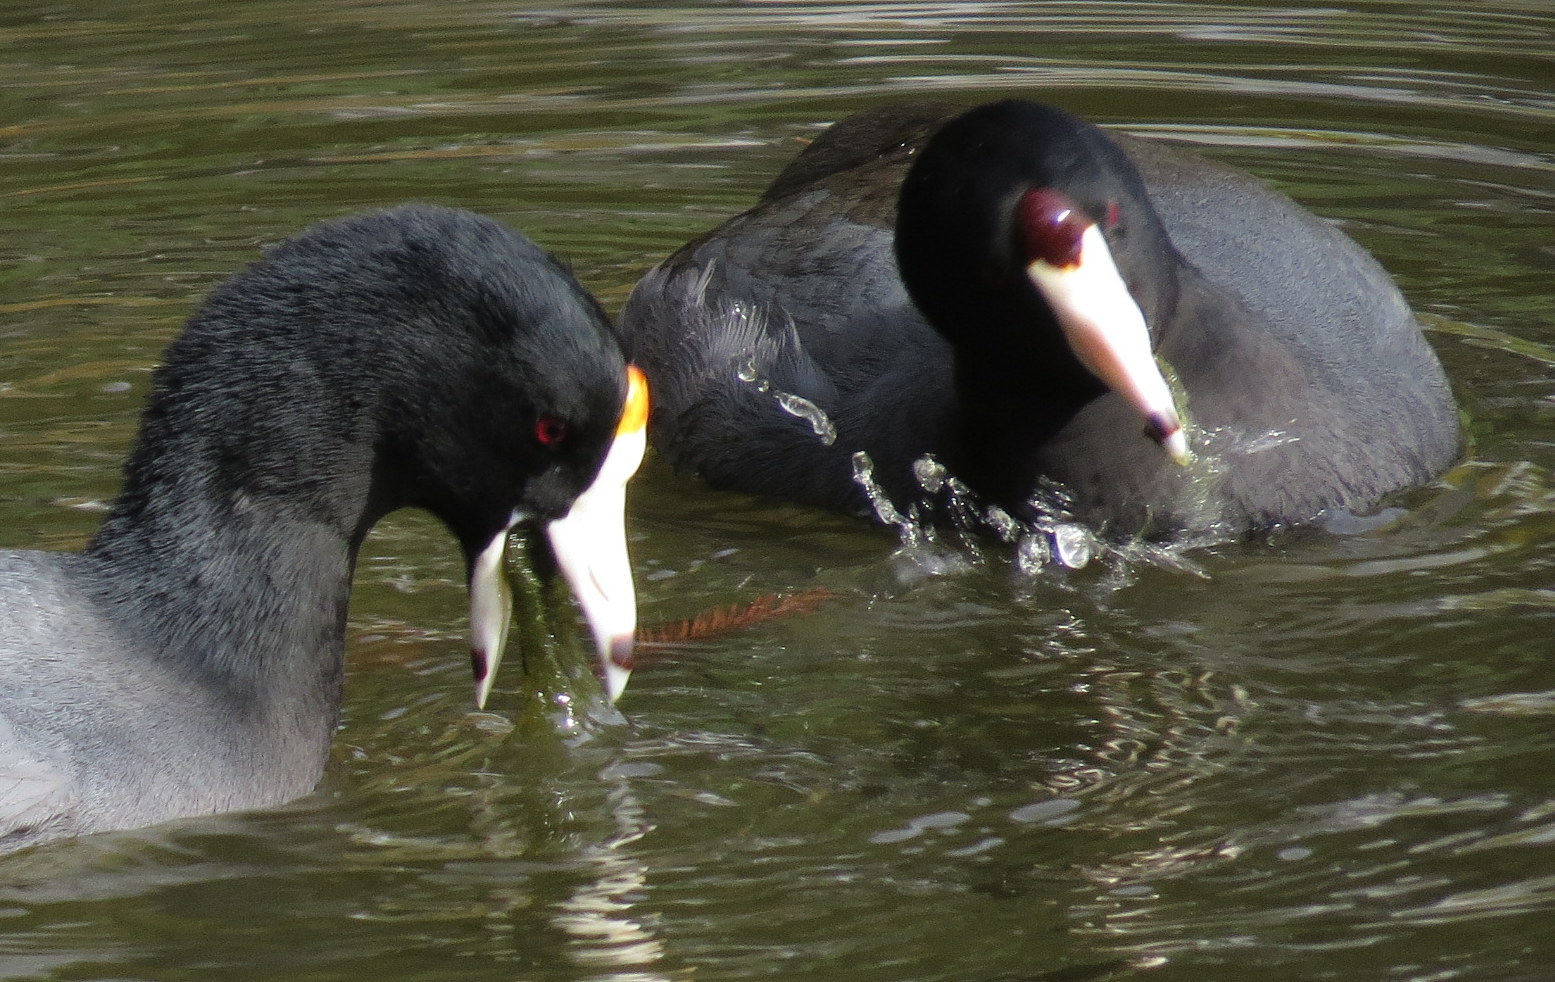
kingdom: Animalia
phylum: Chordata
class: Aves
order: Gruiformes
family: Rallidae
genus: Fulica
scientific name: Fulica americana
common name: American coot
